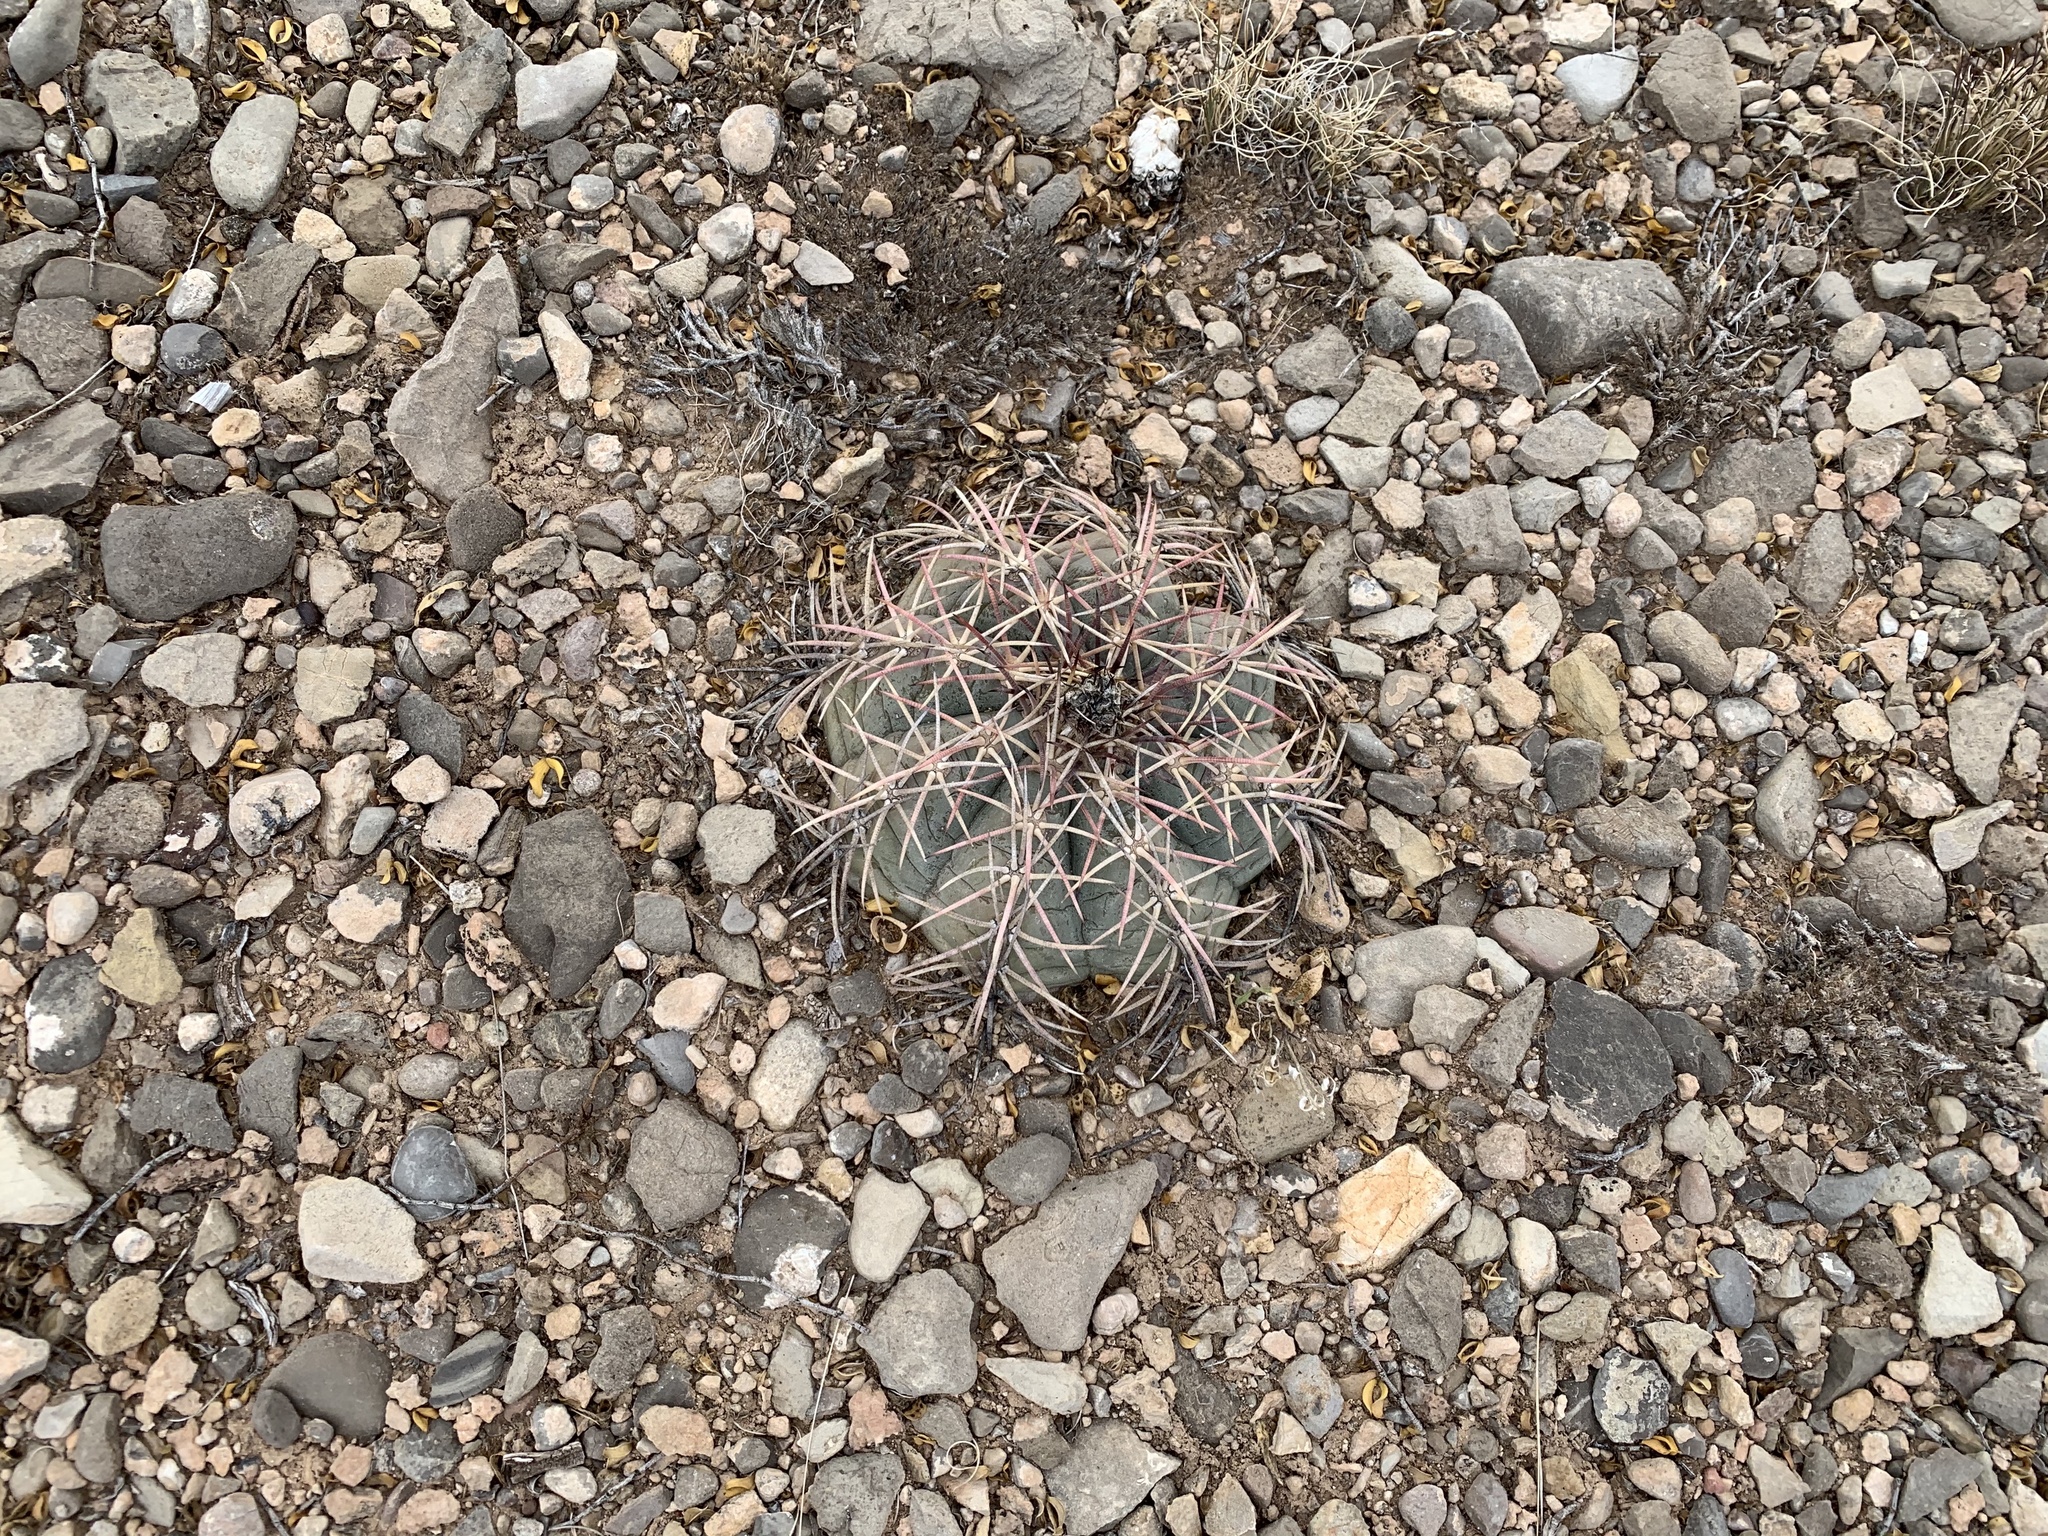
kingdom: Plantae
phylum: Tracheophyta
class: Magnoliopsida
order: Caryophyllales
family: Cactaceae
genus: Echinocactus
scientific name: Echinocactus horizonthalonius
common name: Devilshead
